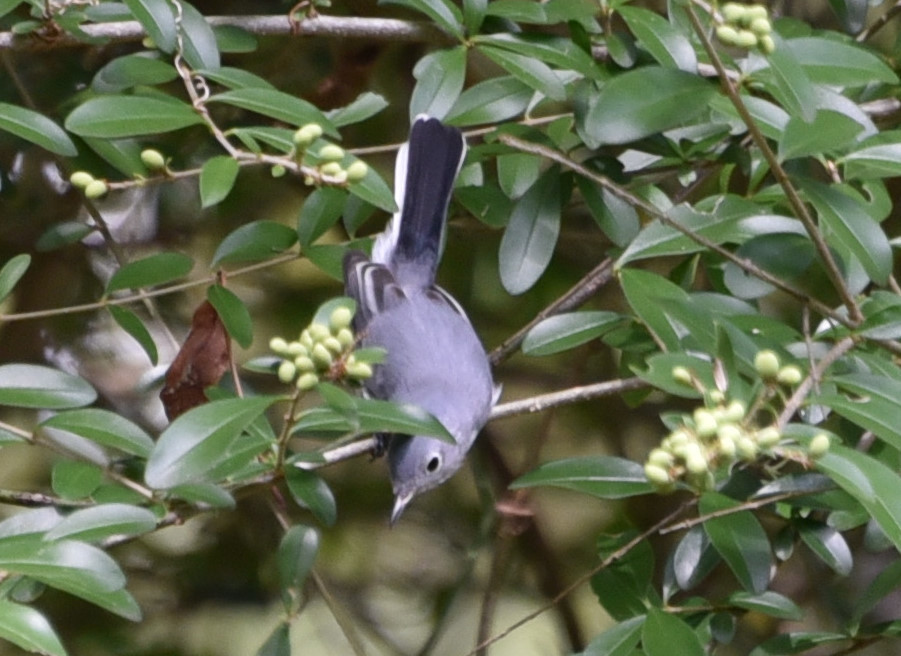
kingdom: Animalia
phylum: Chordata
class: Aves
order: Passeriformes
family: Polioptilidae
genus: Polioptila
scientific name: Polioptila caerulea
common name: Blue-gray gnatcatcher
